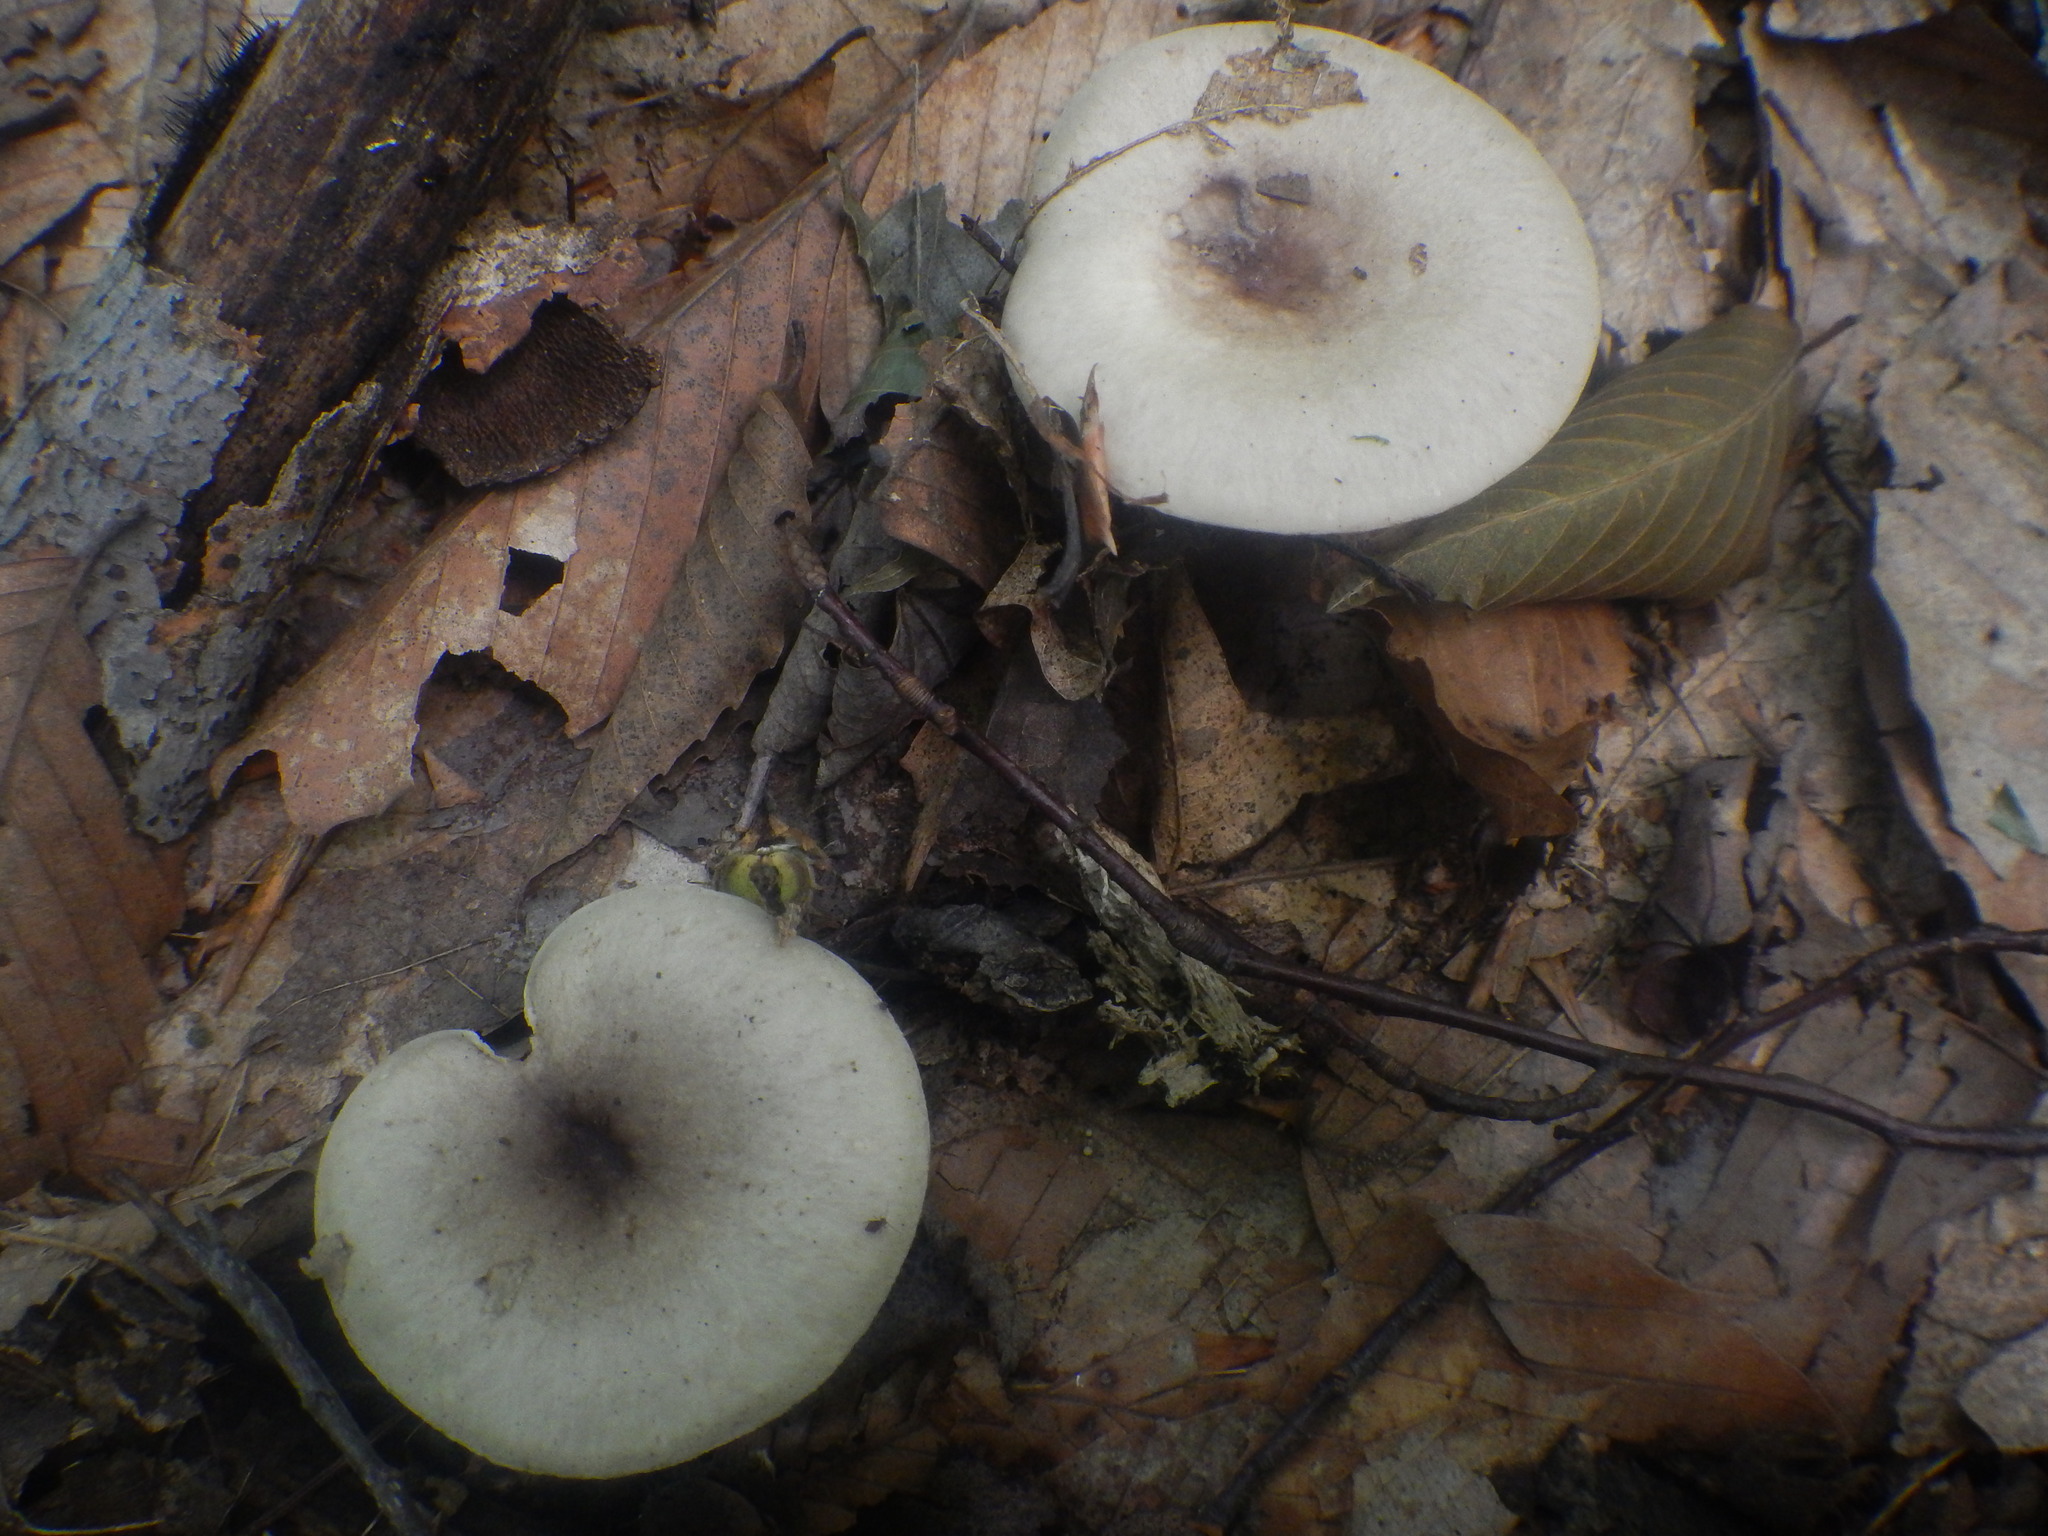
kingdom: Fungi
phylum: Basidiomycota
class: Agaricomycetes
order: Russulales
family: Russulaceae
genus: Lactarius
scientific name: Lactarius cinereus
